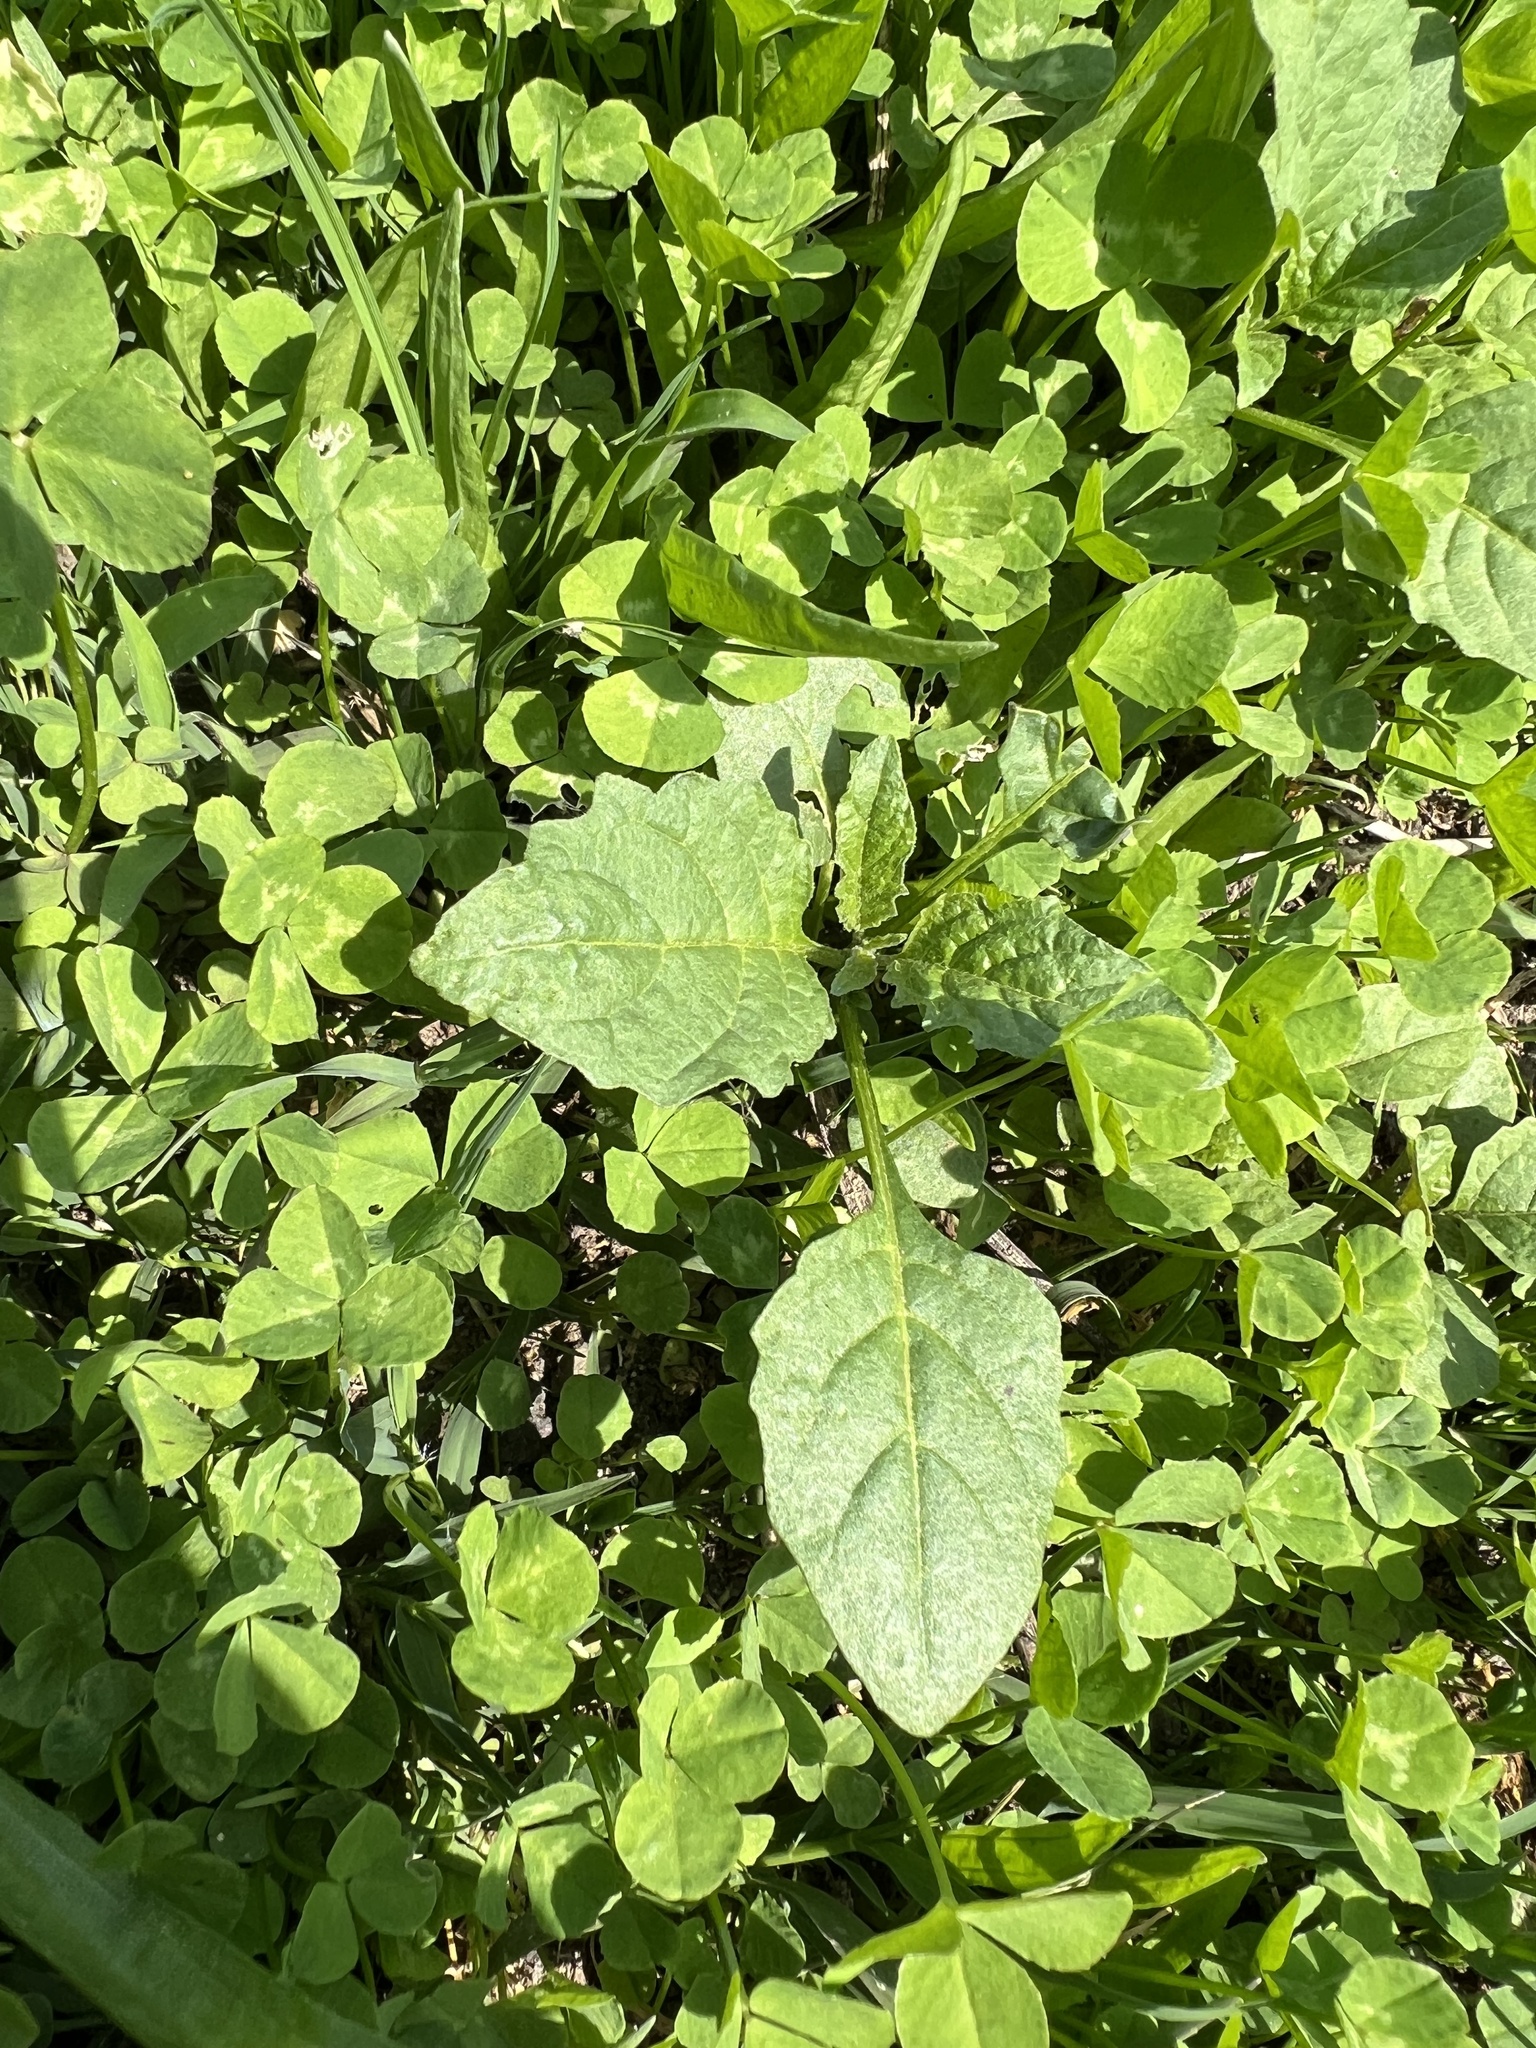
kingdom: Plantae
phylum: Tracheophyta
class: Magnoliopsida
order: Solanales
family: Solanaceae
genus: Solanum
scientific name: Solanum emulans
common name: Eastern black nightshade
